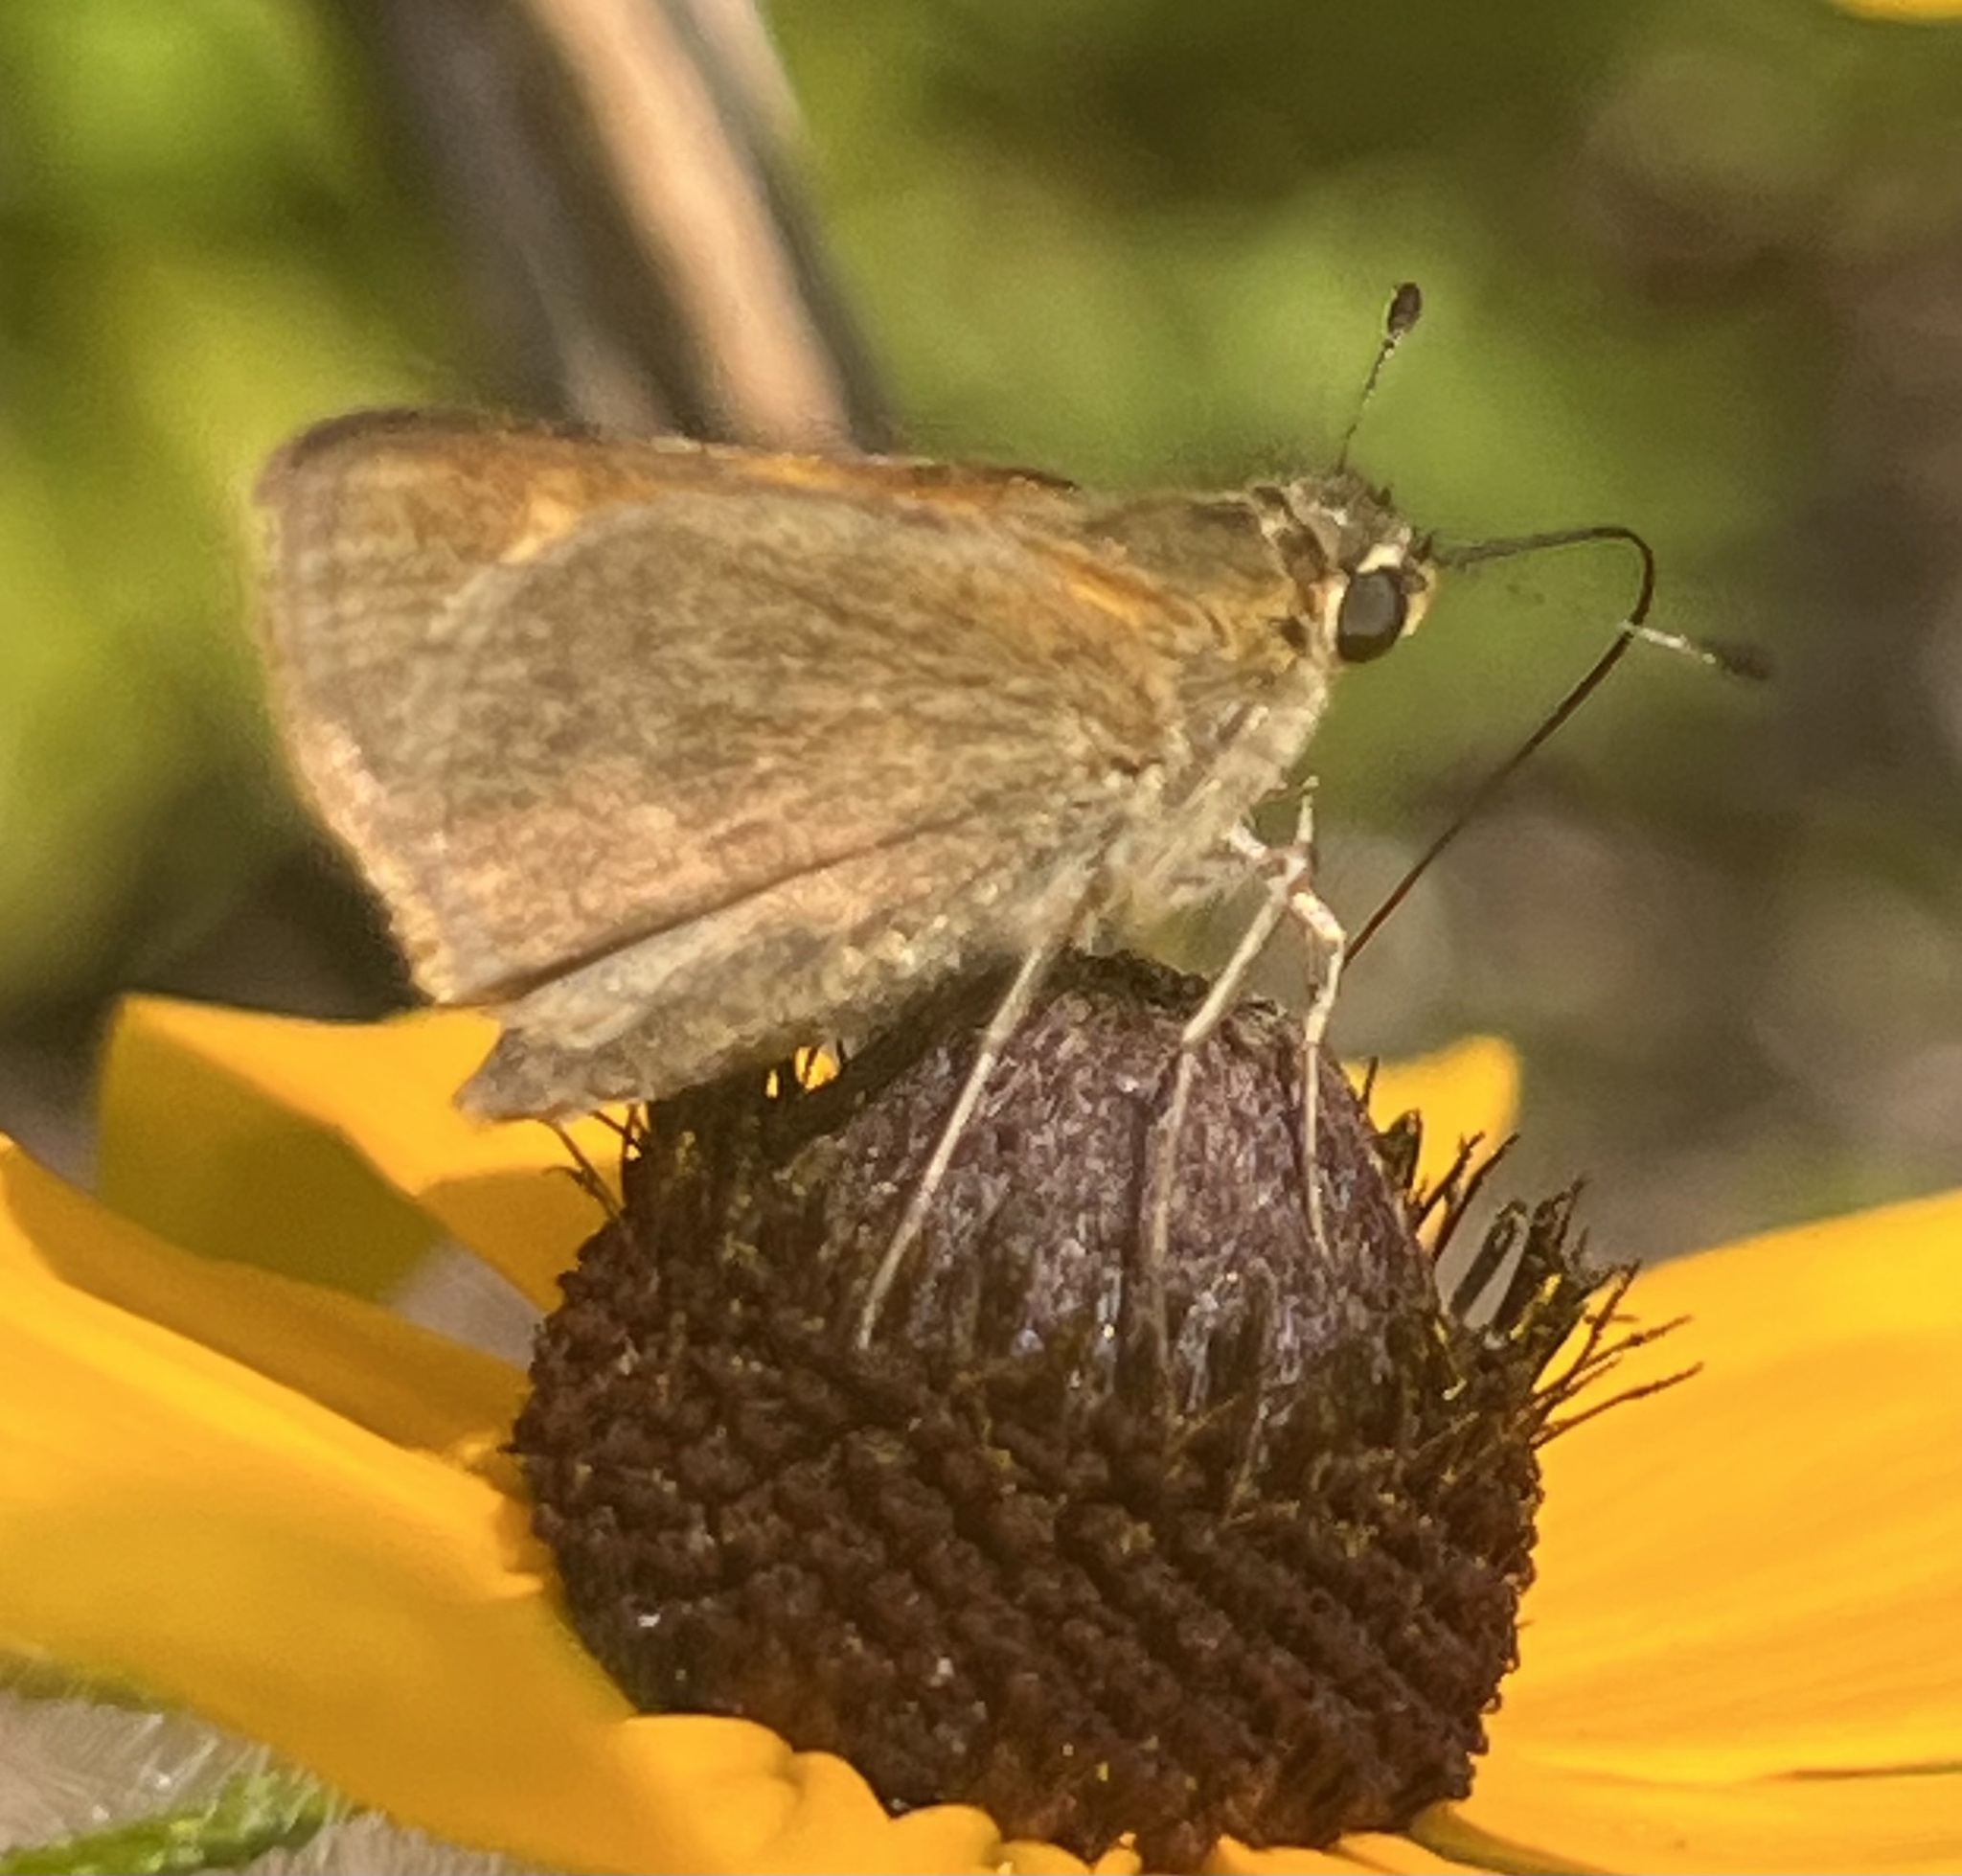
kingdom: Animalia
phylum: Arthropoda
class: Insecta
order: Lepidoptera
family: Hesperiidae
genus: Polites
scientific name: Polites themistocles
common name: Tawny-edged skipper
